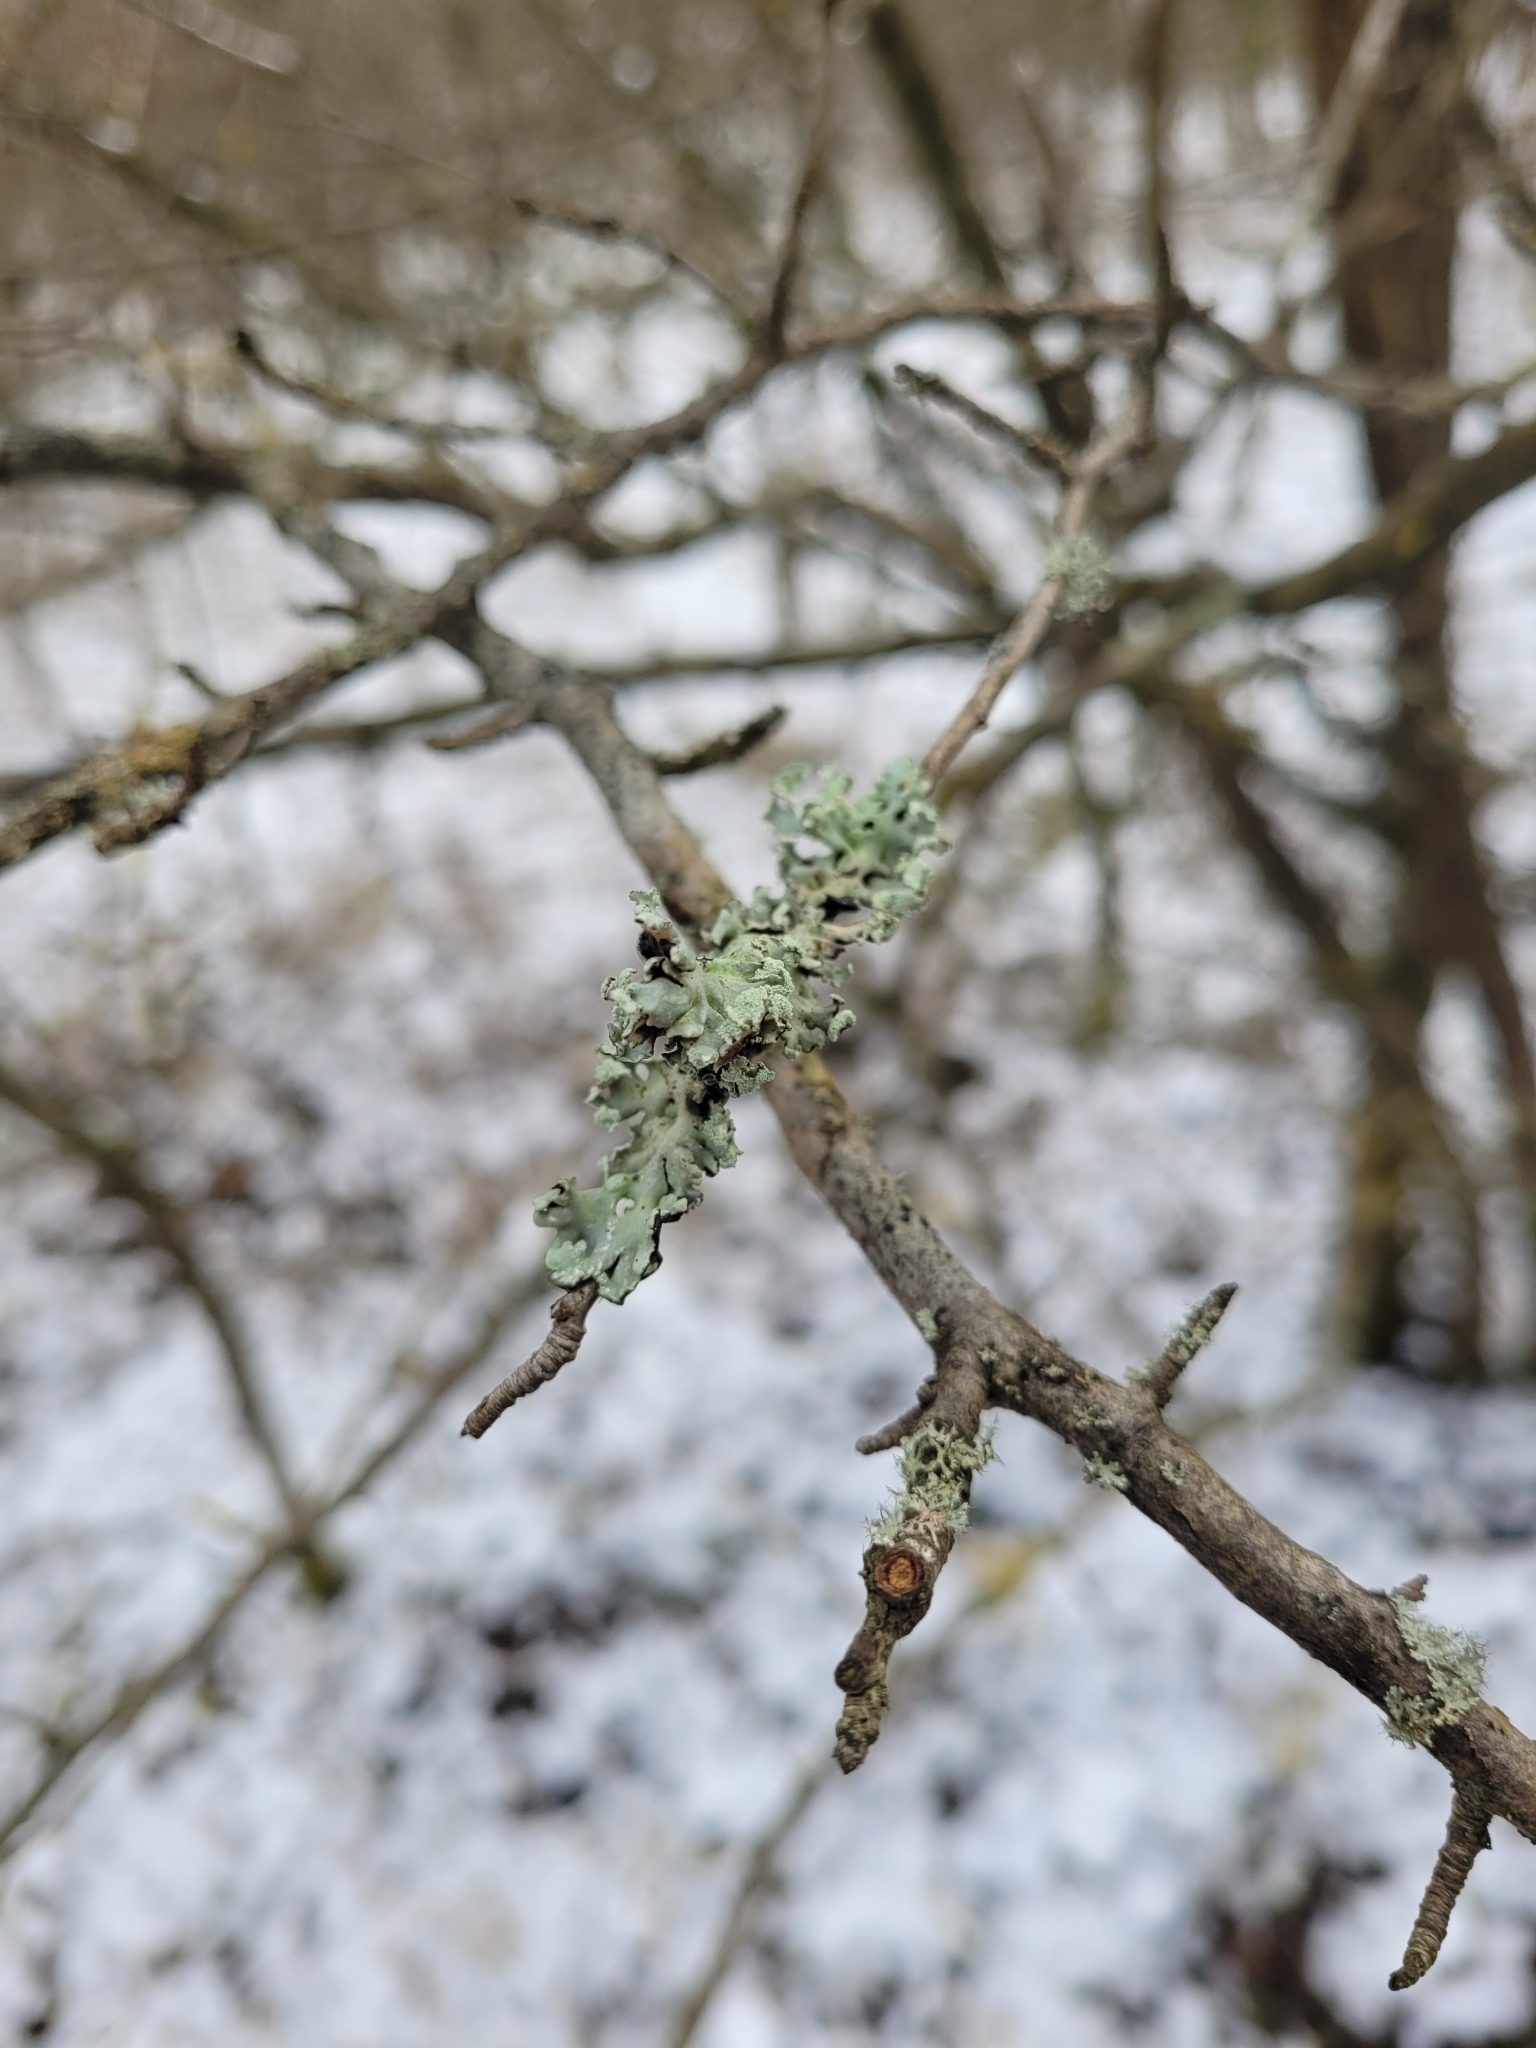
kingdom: Fungi
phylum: Ascomycota
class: Lecanoromycetes
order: Lecanorales
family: Parmeliaceae
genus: Hypogymnia
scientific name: Hypogymnia physodes
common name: Dark crottle
